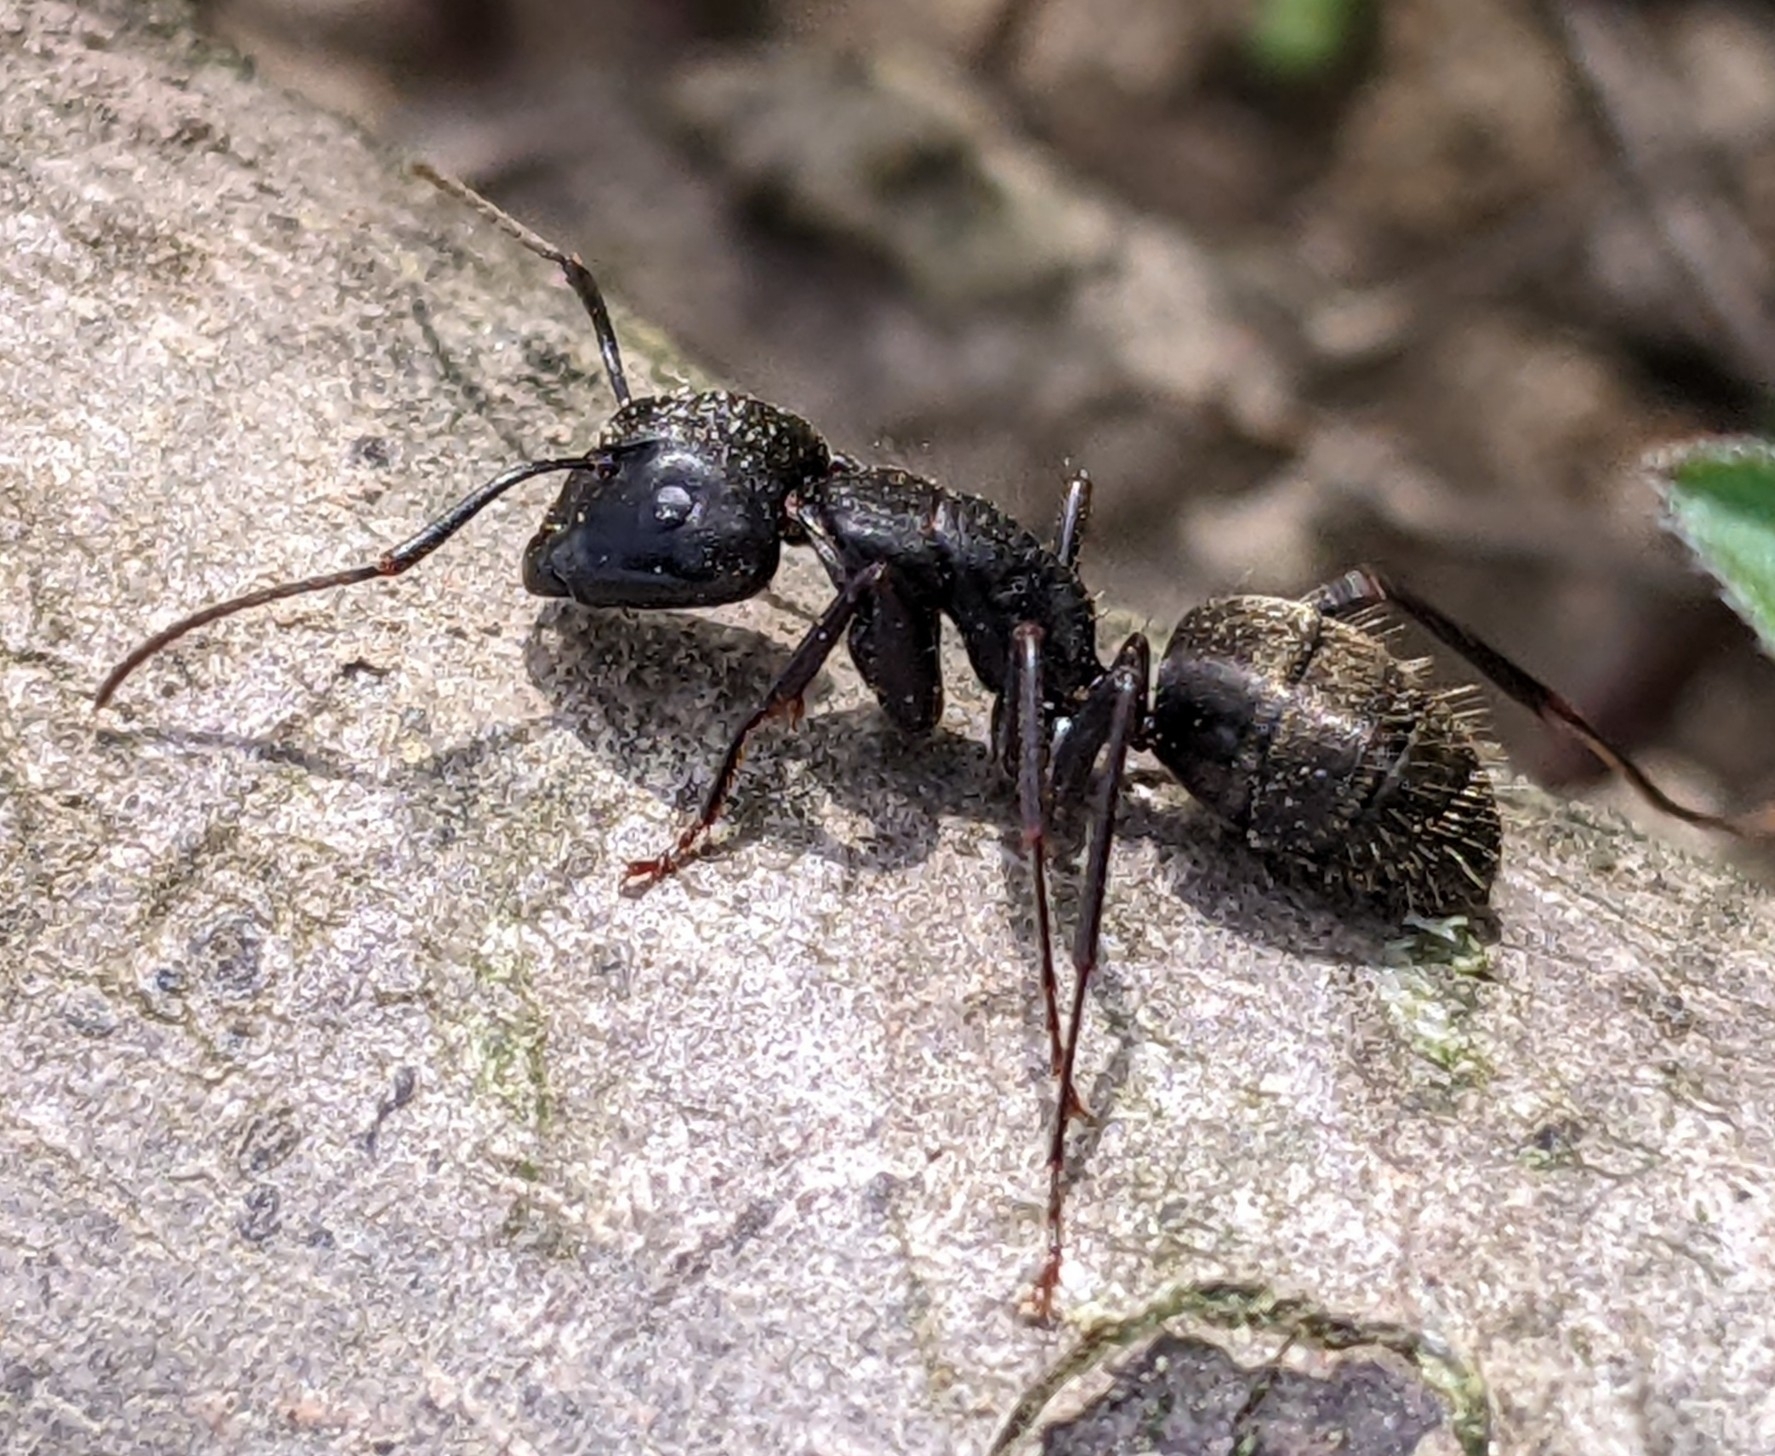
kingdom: Animalia
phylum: Arthropoda
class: Insecta
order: Hymenoptera
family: Formicidae
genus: Camponotus
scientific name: Camponotus pennsylvanicus
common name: Black carpenter ant
